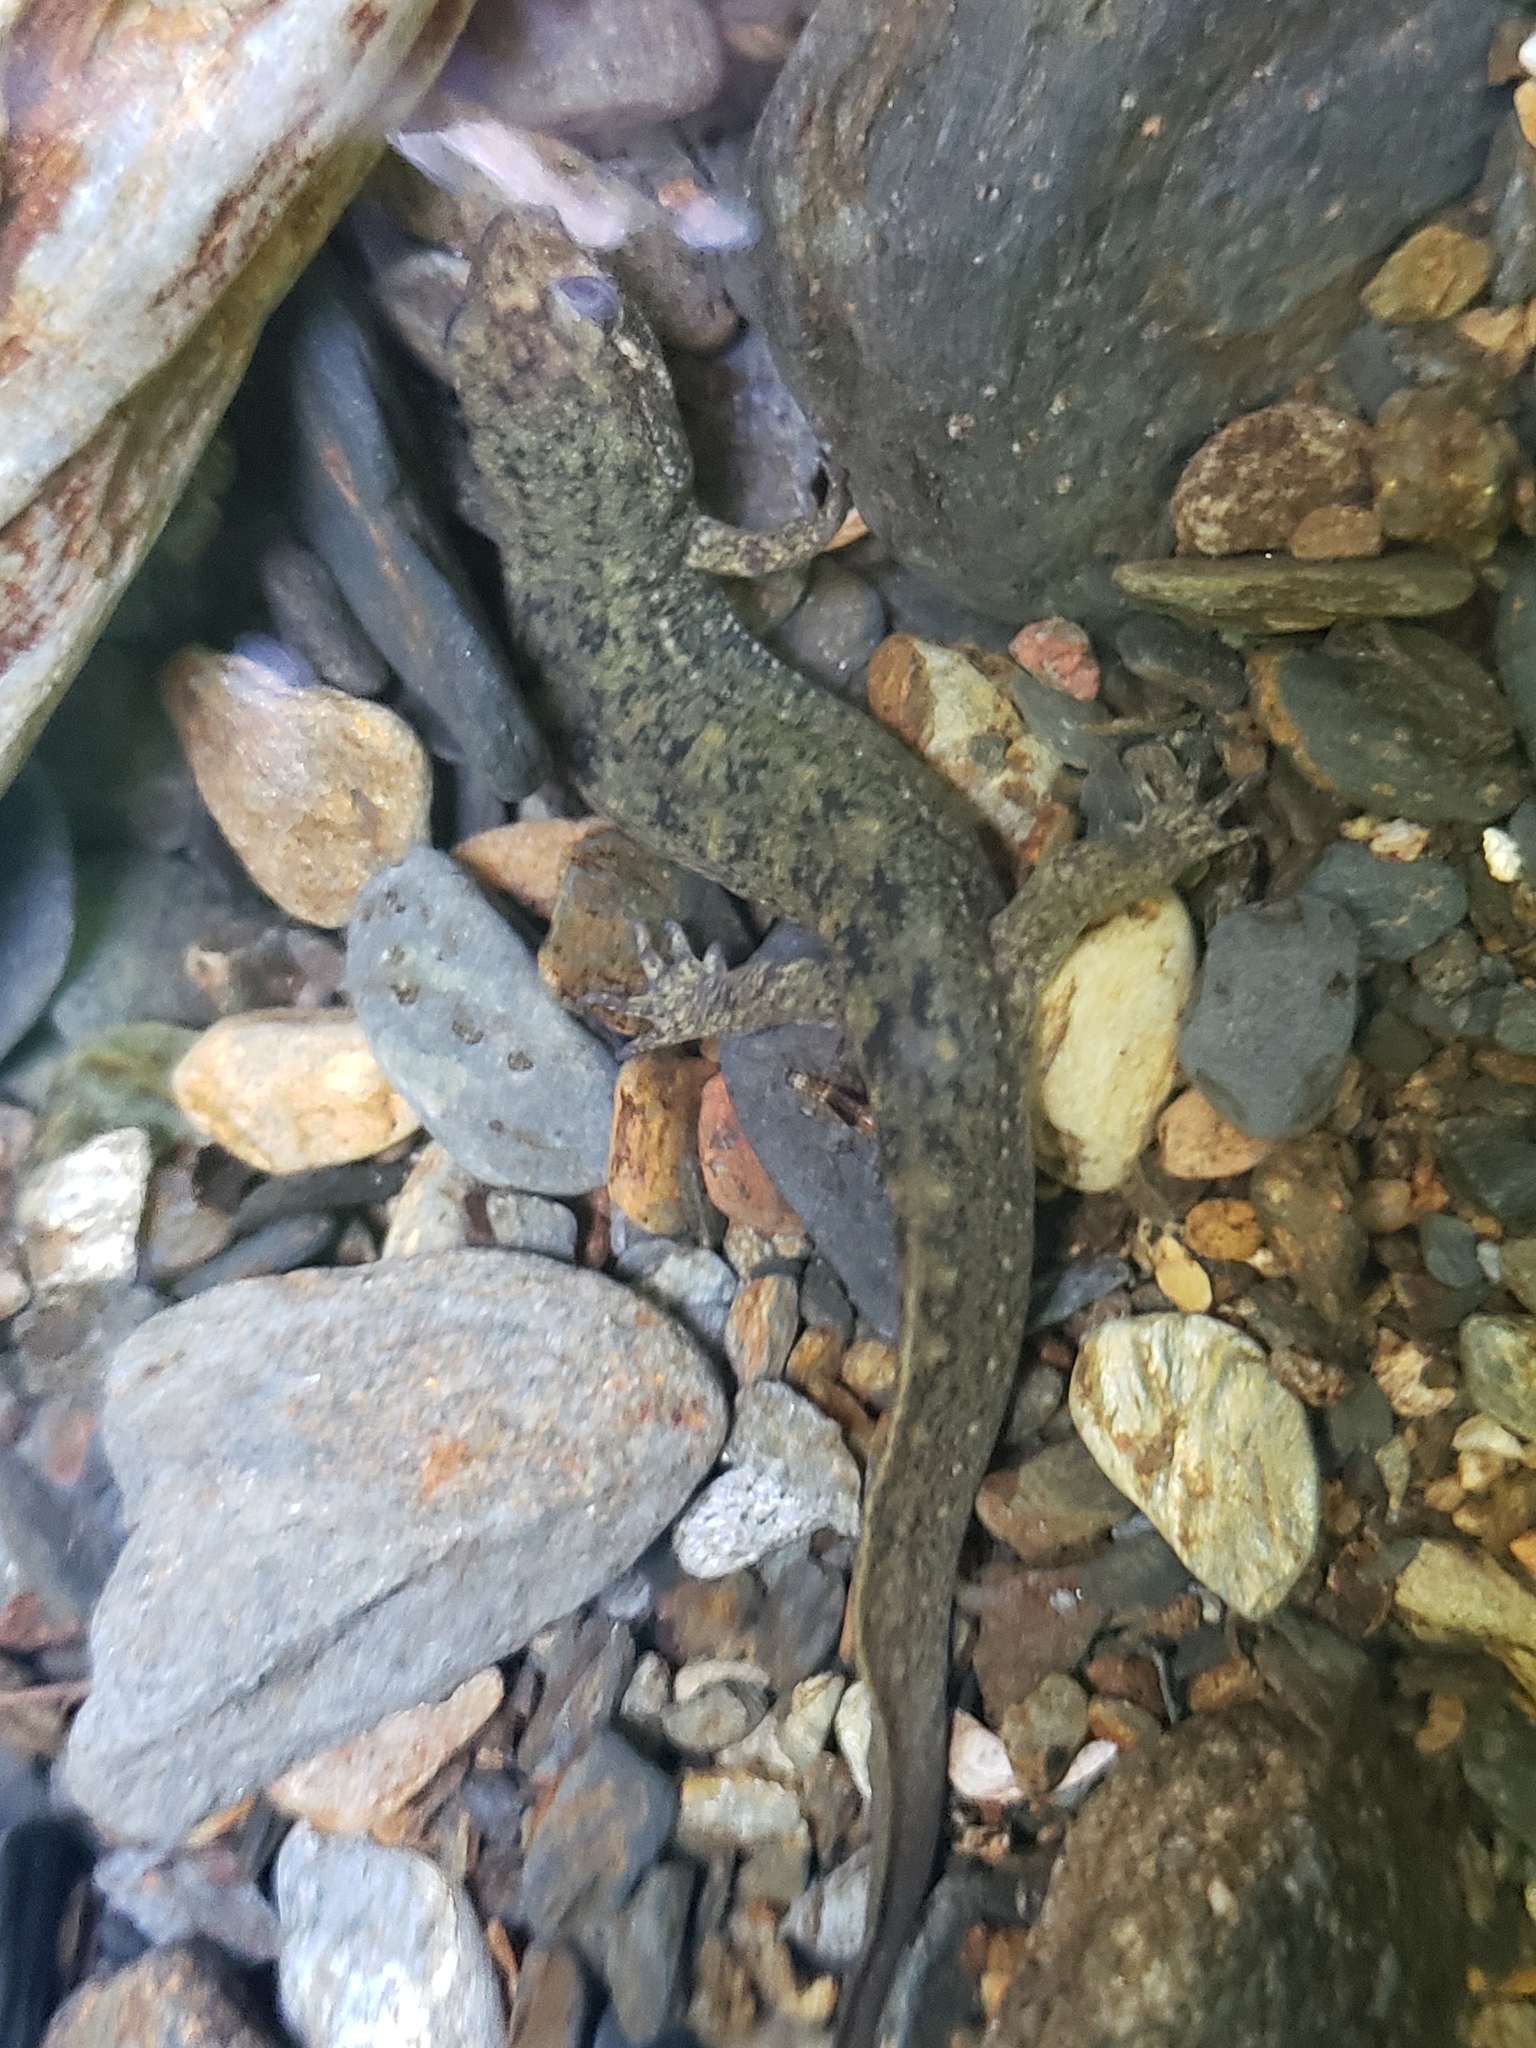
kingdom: Animalia
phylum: Chordata
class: Amphibia
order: Caudata
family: Plethodontidae
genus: Desmognathus
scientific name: Desmognathus
